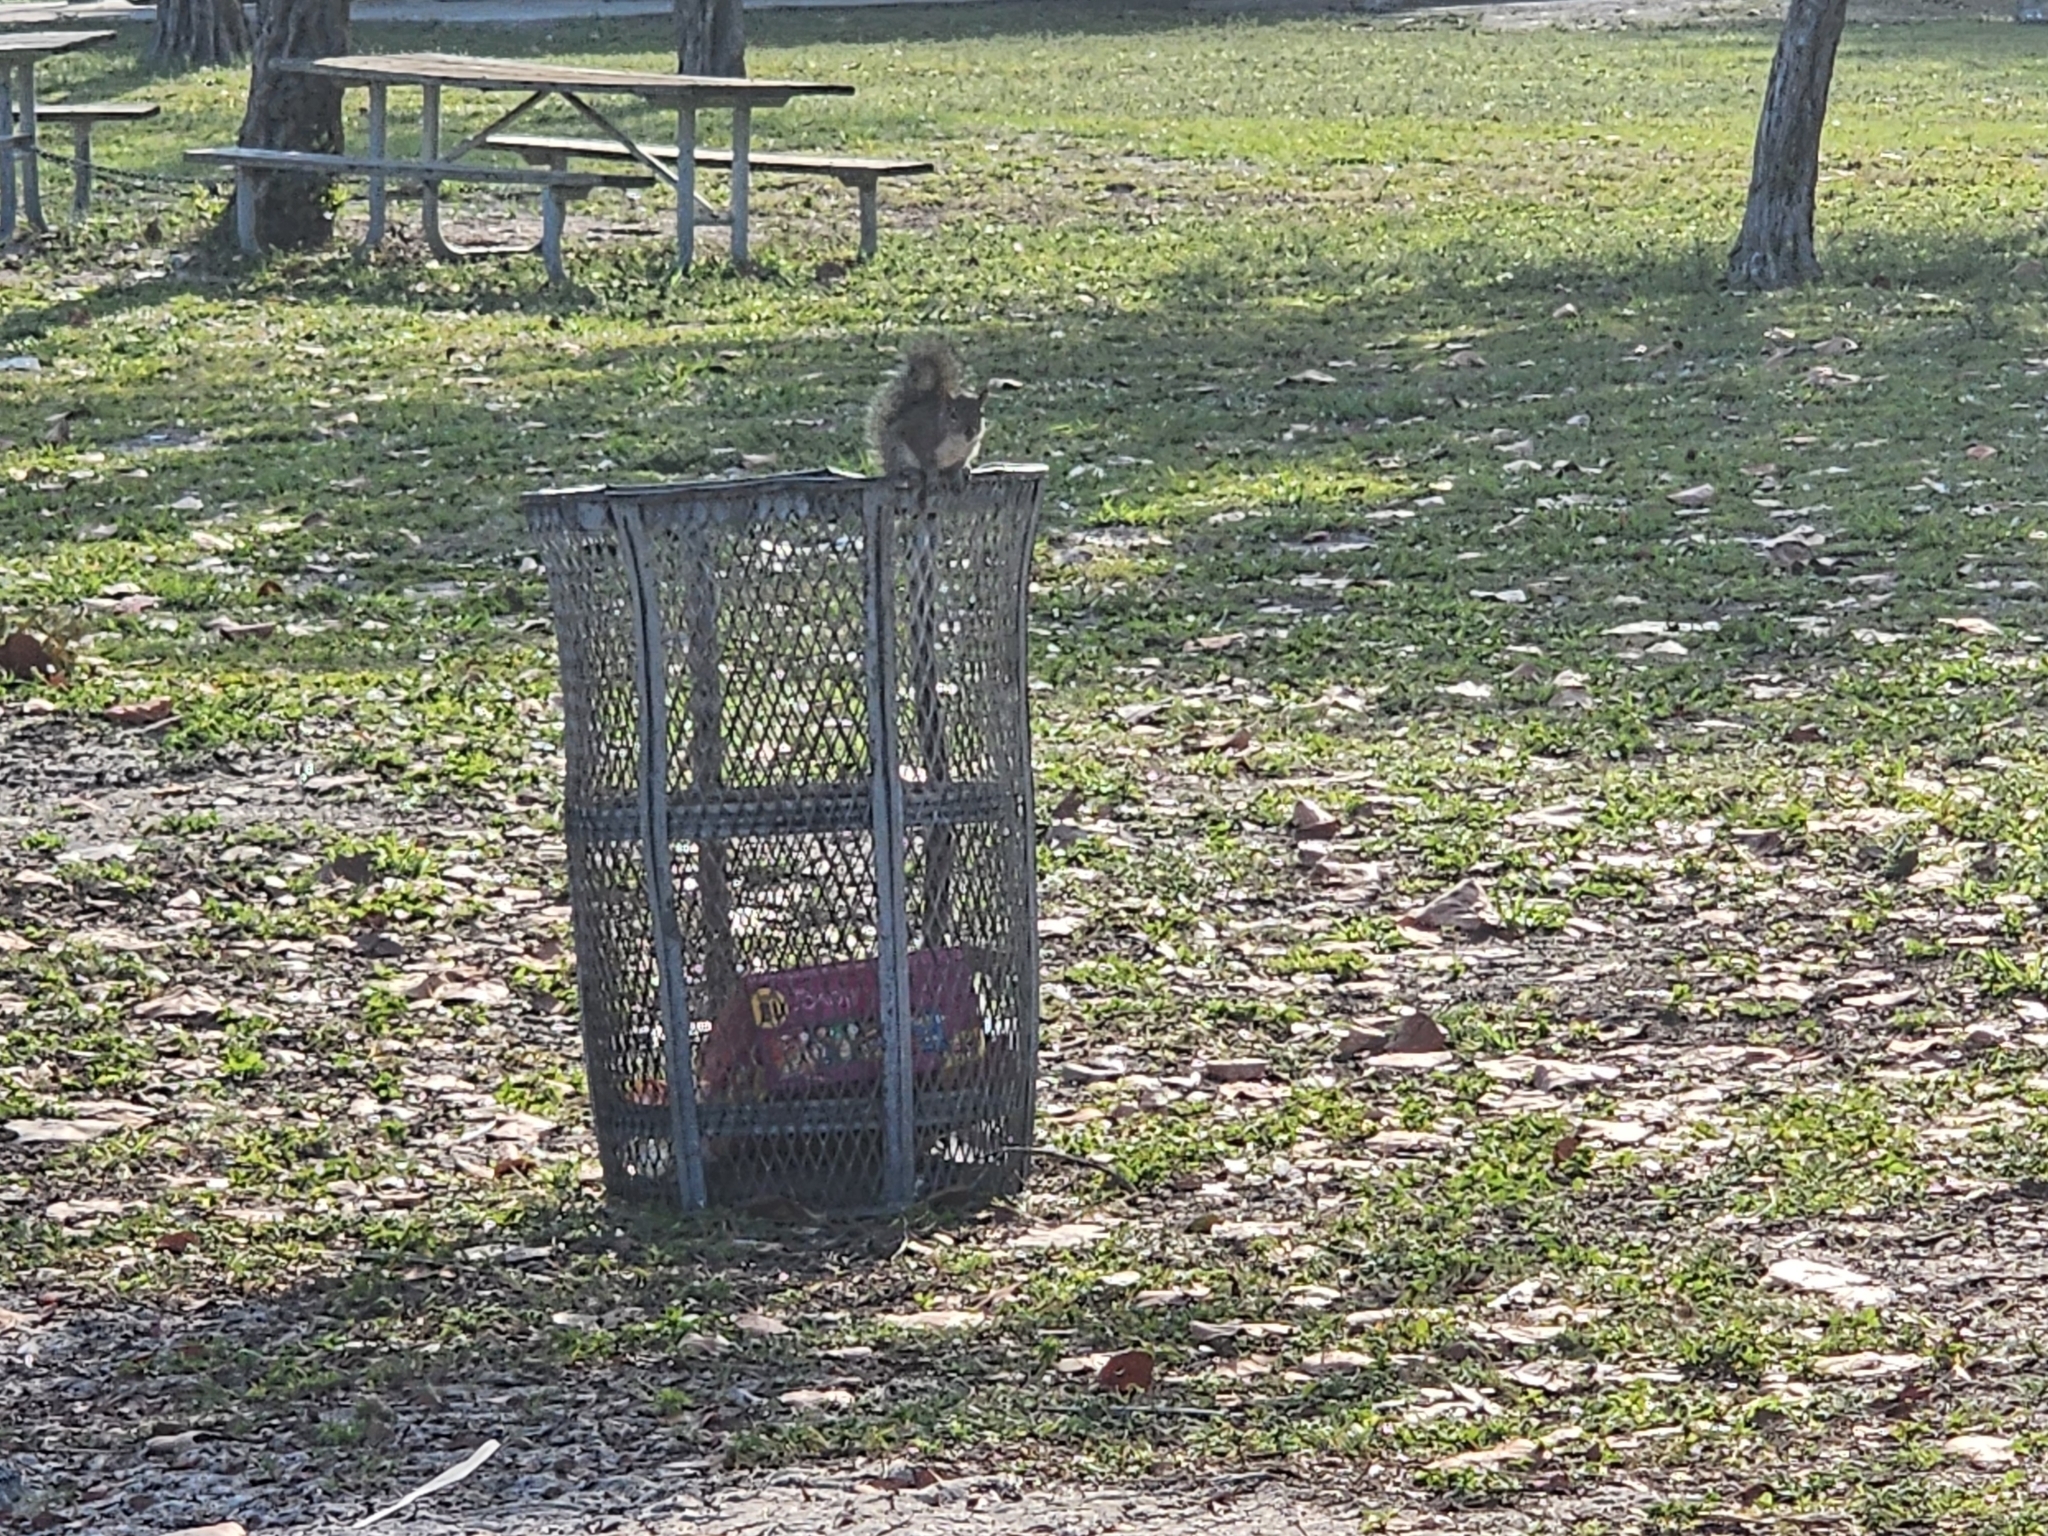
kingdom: Animalia
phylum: Chordata
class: Mammalia
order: Rodentia
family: Sciuridae
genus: Sciurus
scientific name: Sciurus carolinensis
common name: Eastern gray squirrel
